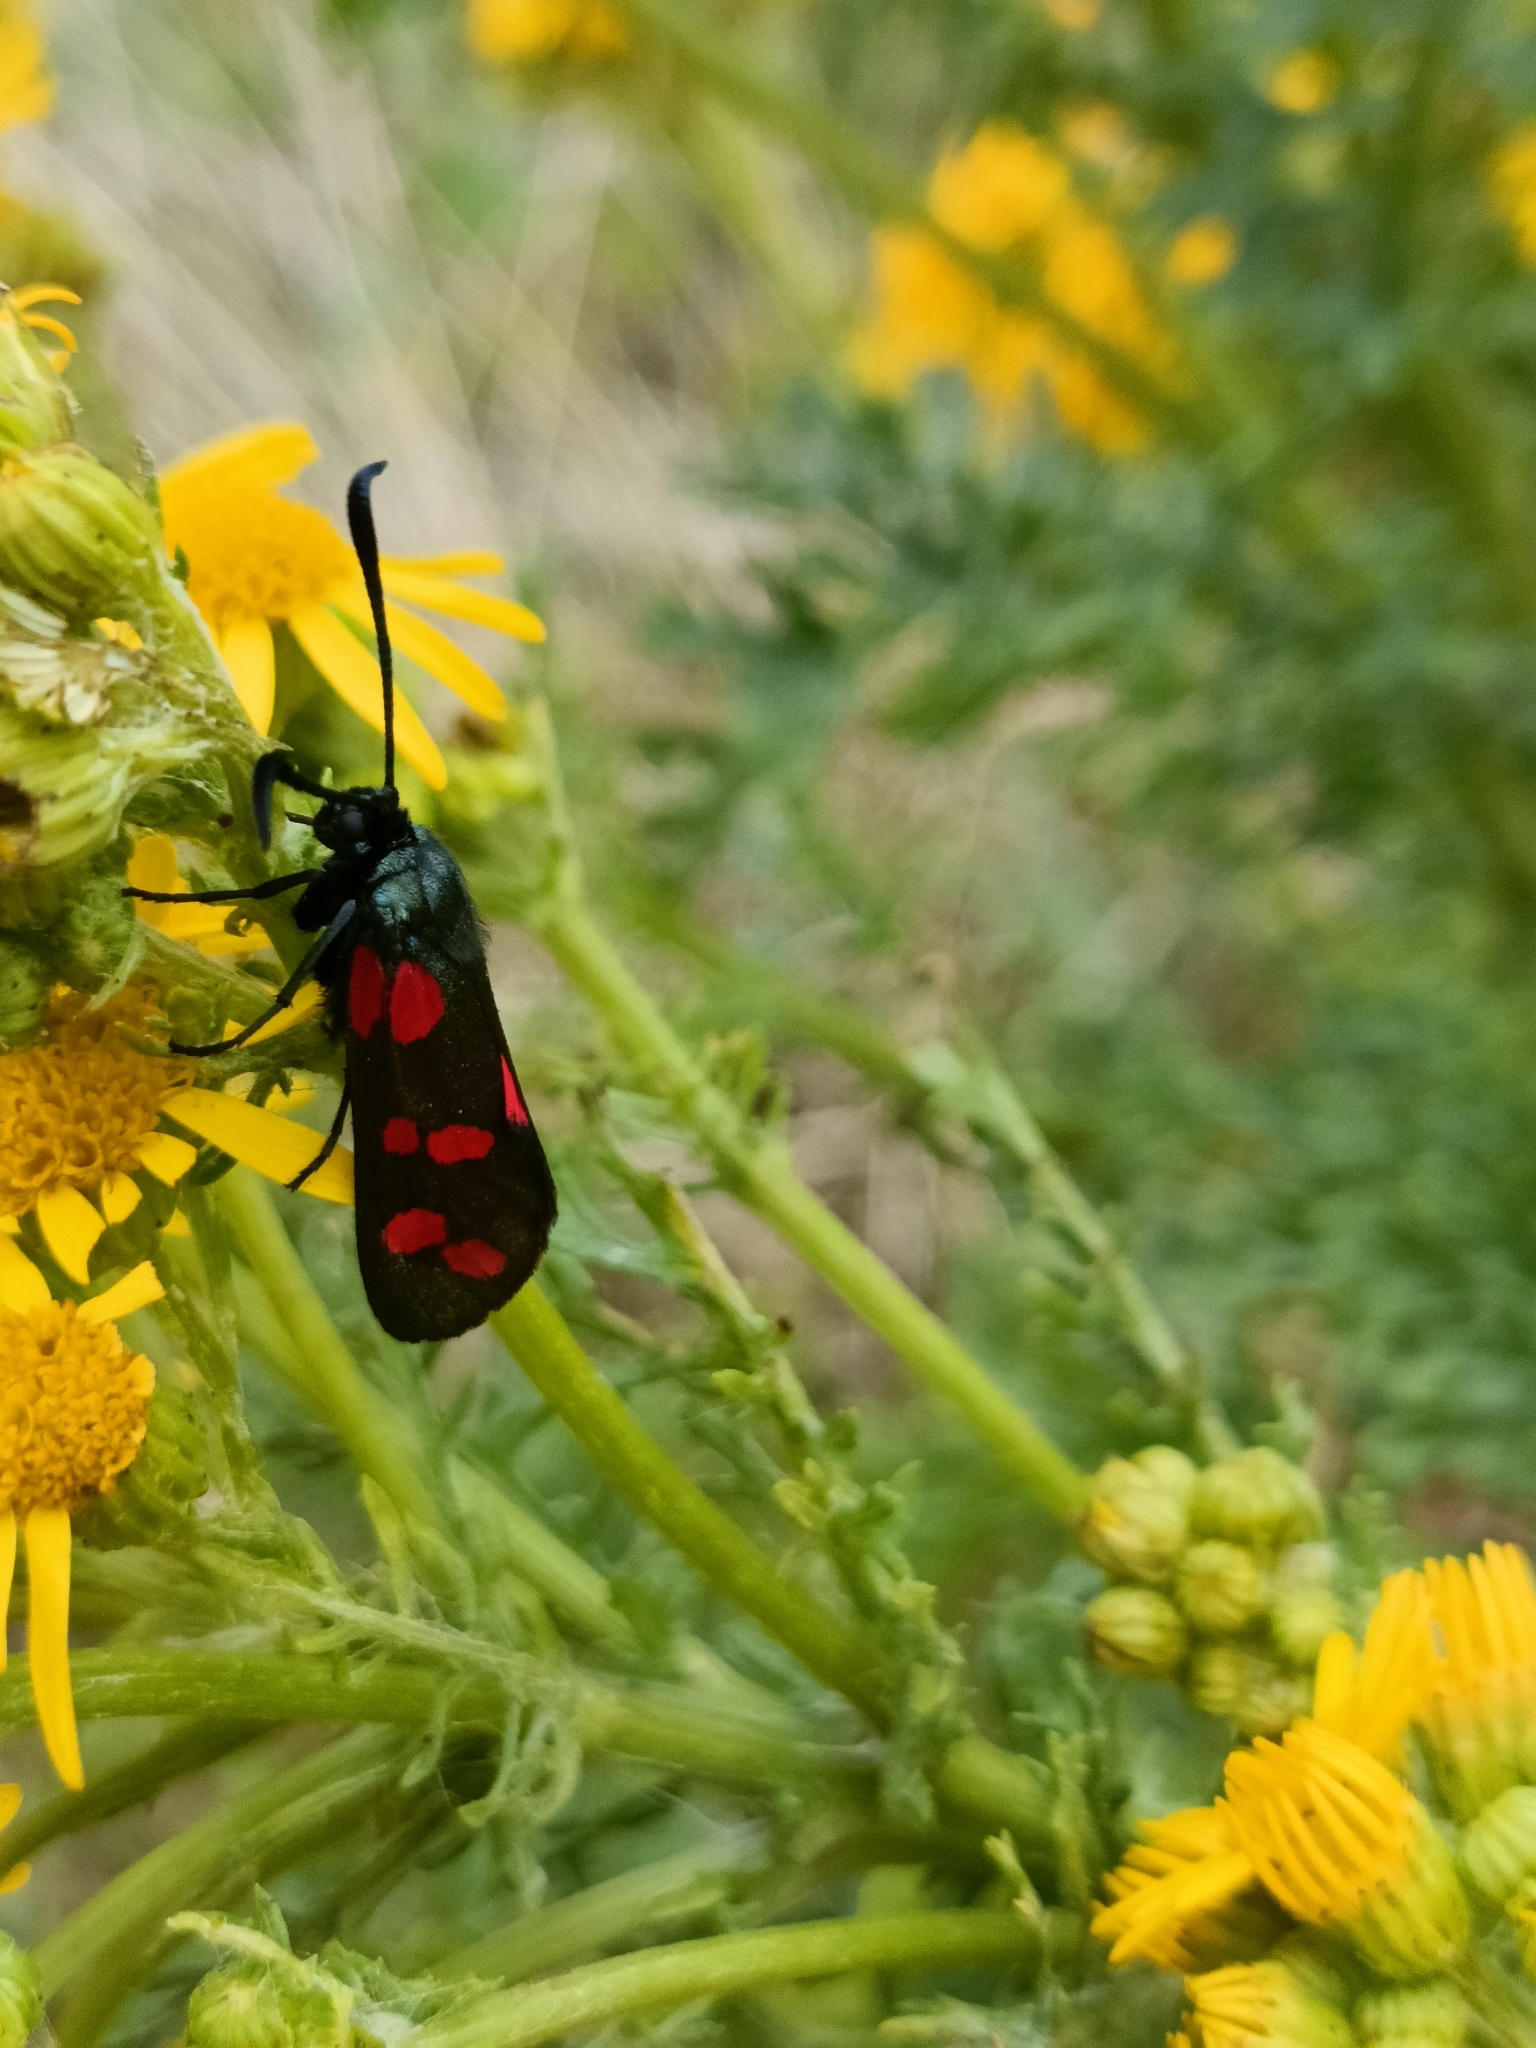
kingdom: Animalia
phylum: Arthropoda
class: Insecta
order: Lepidoptera
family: Zygaenidae
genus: Zygaena
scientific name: Zygaena filipendulae
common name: Six-spot burnet
